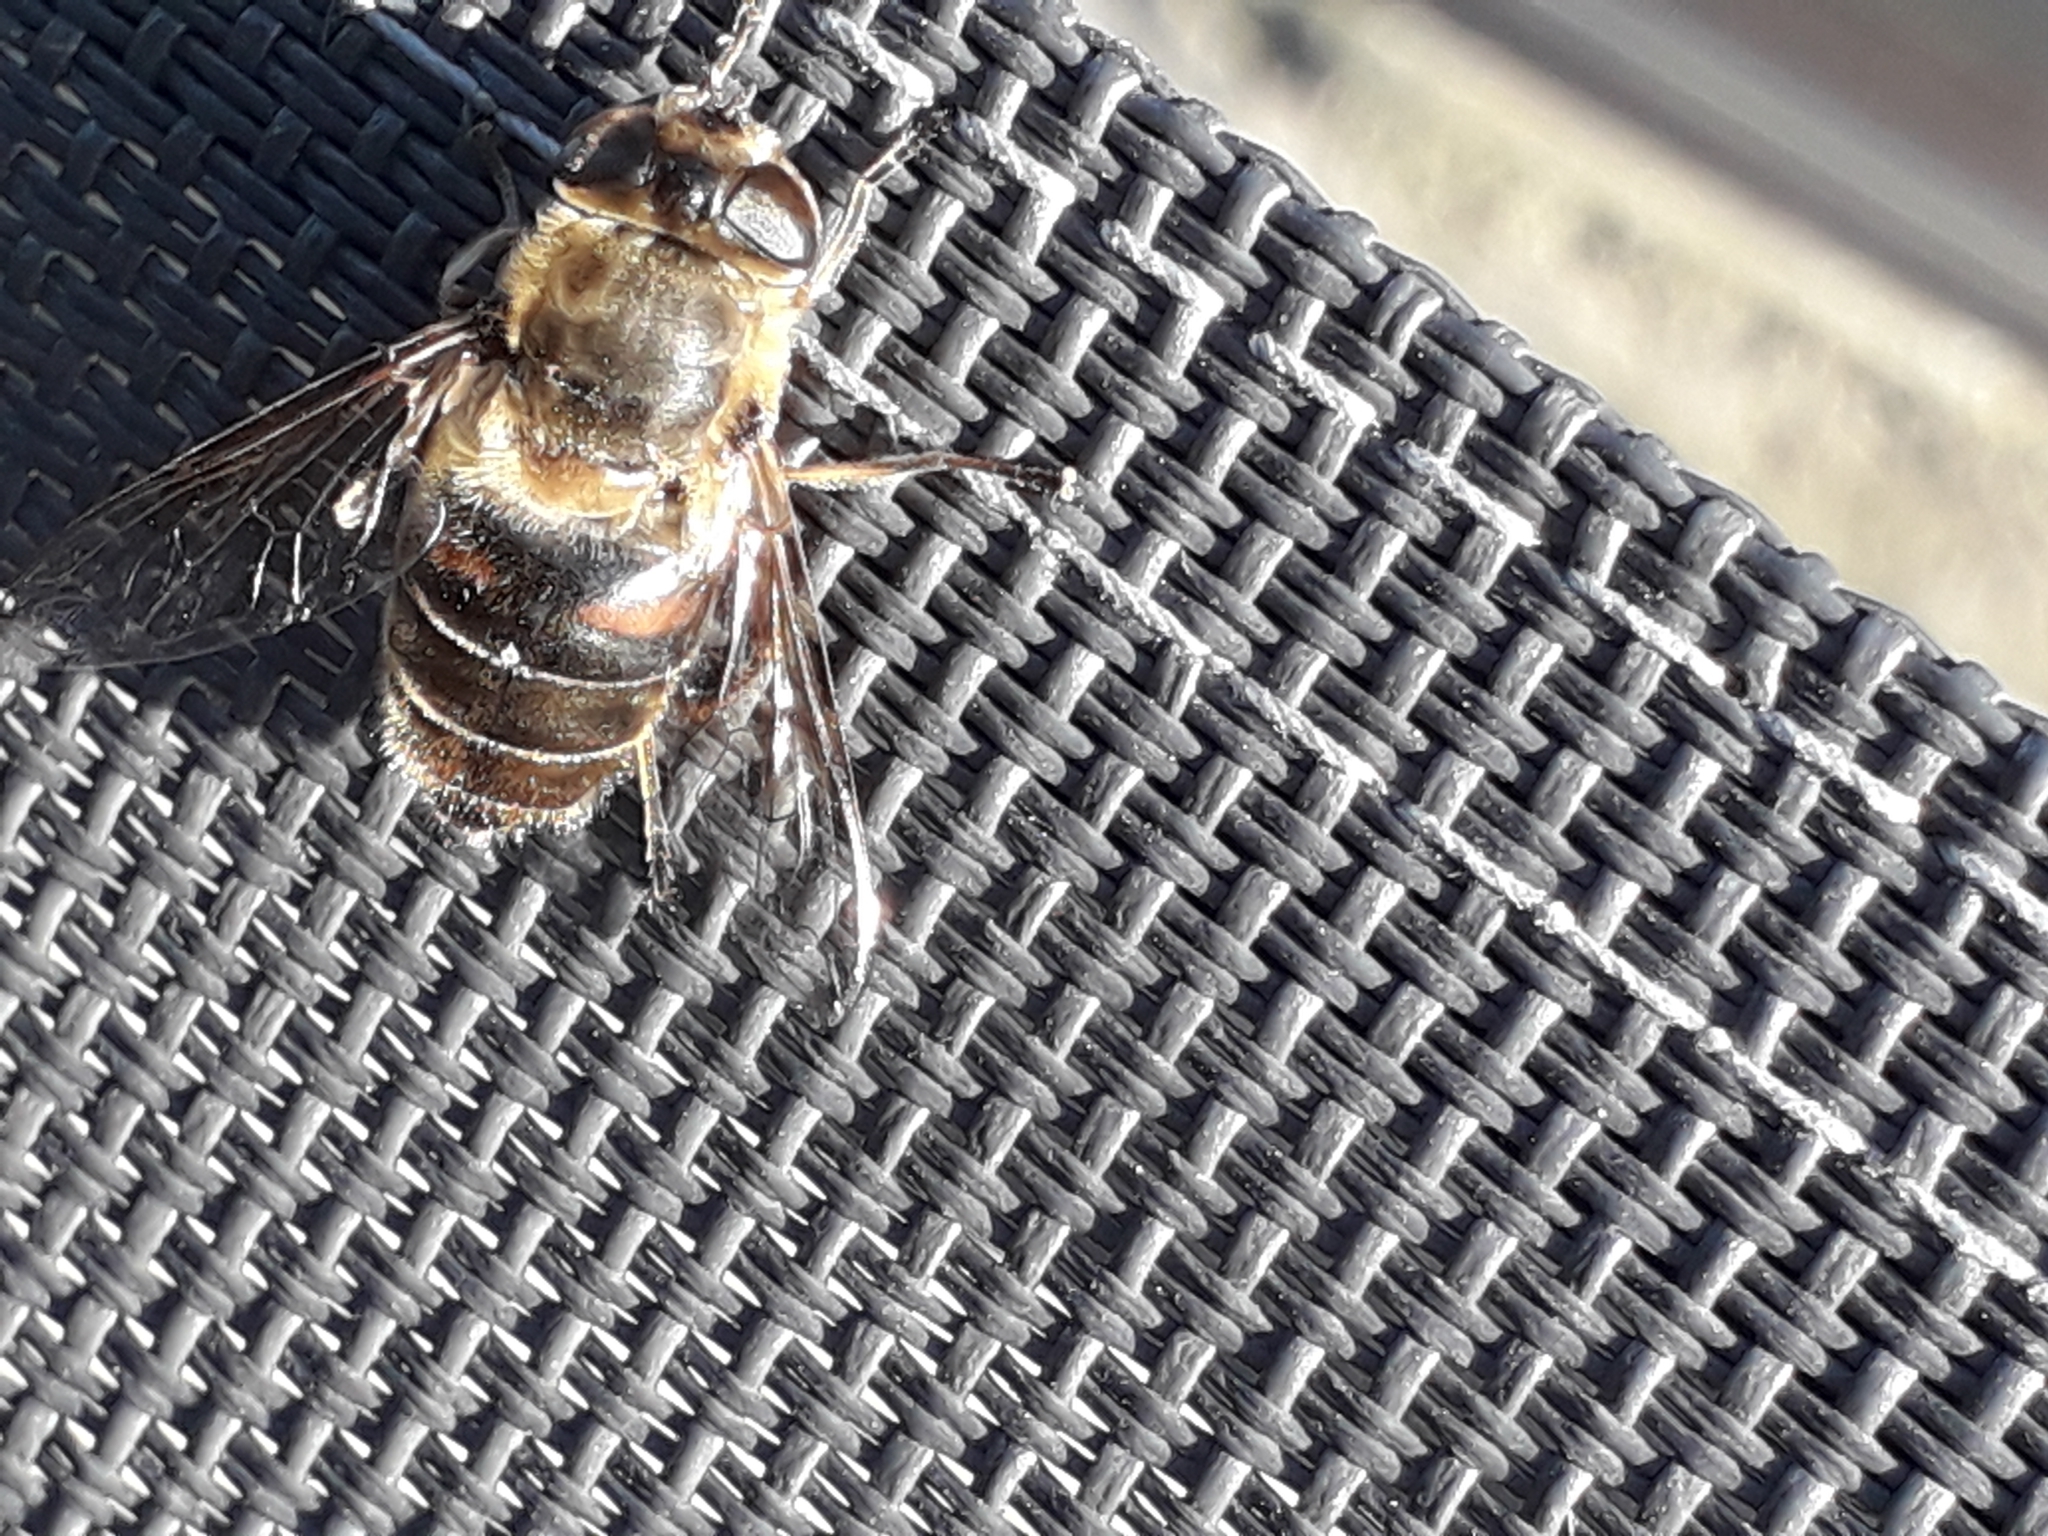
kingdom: Animalia
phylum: Arthropoda
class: Insecta
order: Diptera
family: Syrphidae
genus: Eristalis
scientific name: Eristalis tenax
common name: Drone fly
